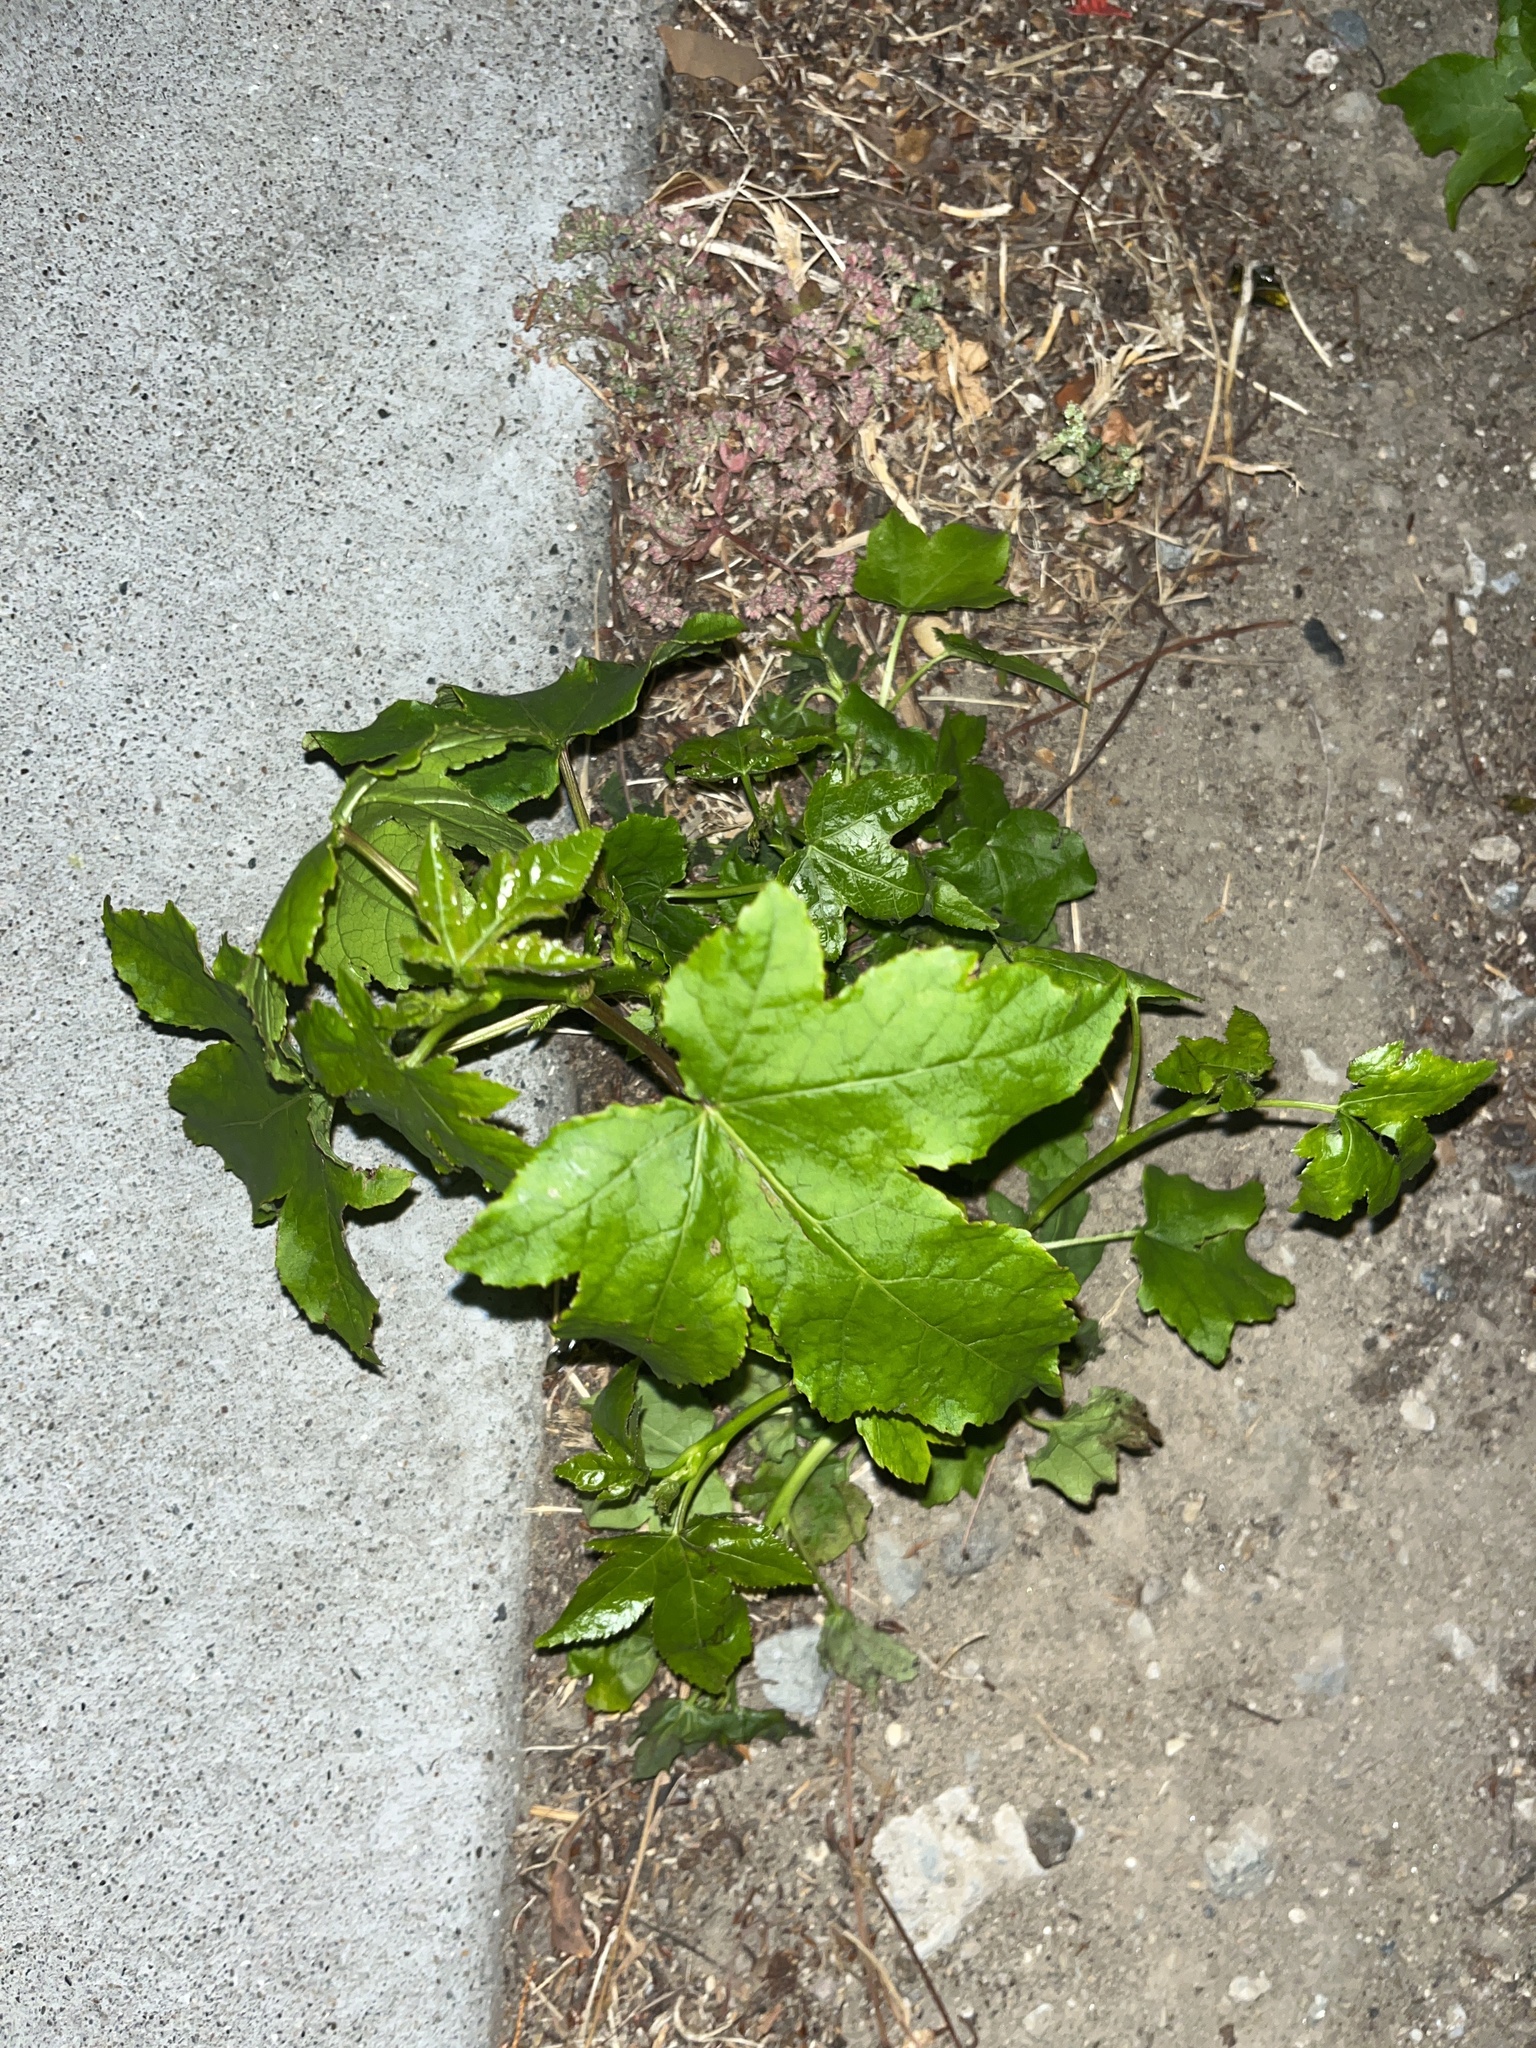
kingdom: Plantae
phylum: Tracheophyta
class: Magnoliopsida
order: Saxifragales
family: Altingiaceae
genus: Liquidambar
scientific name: Liquidambar styraciflua
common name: Sweet gum
